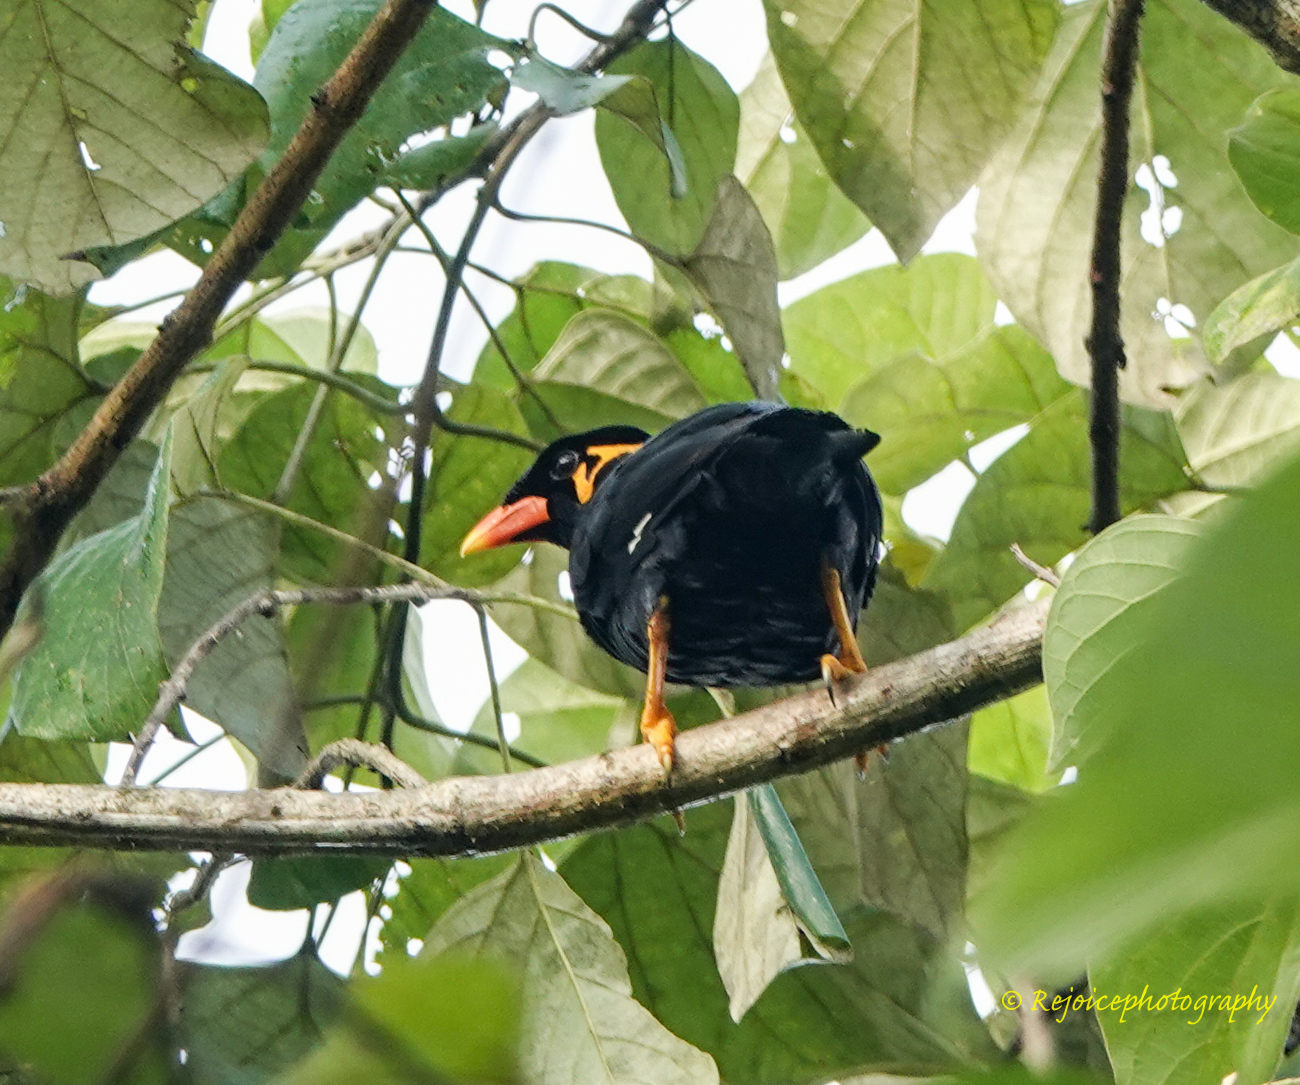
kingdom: Animalia
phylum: Chordata
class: Aves
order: Passeriformes
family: Sturnidae
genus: Gracula
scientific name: Gracula religiosa
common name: Common hill myna
